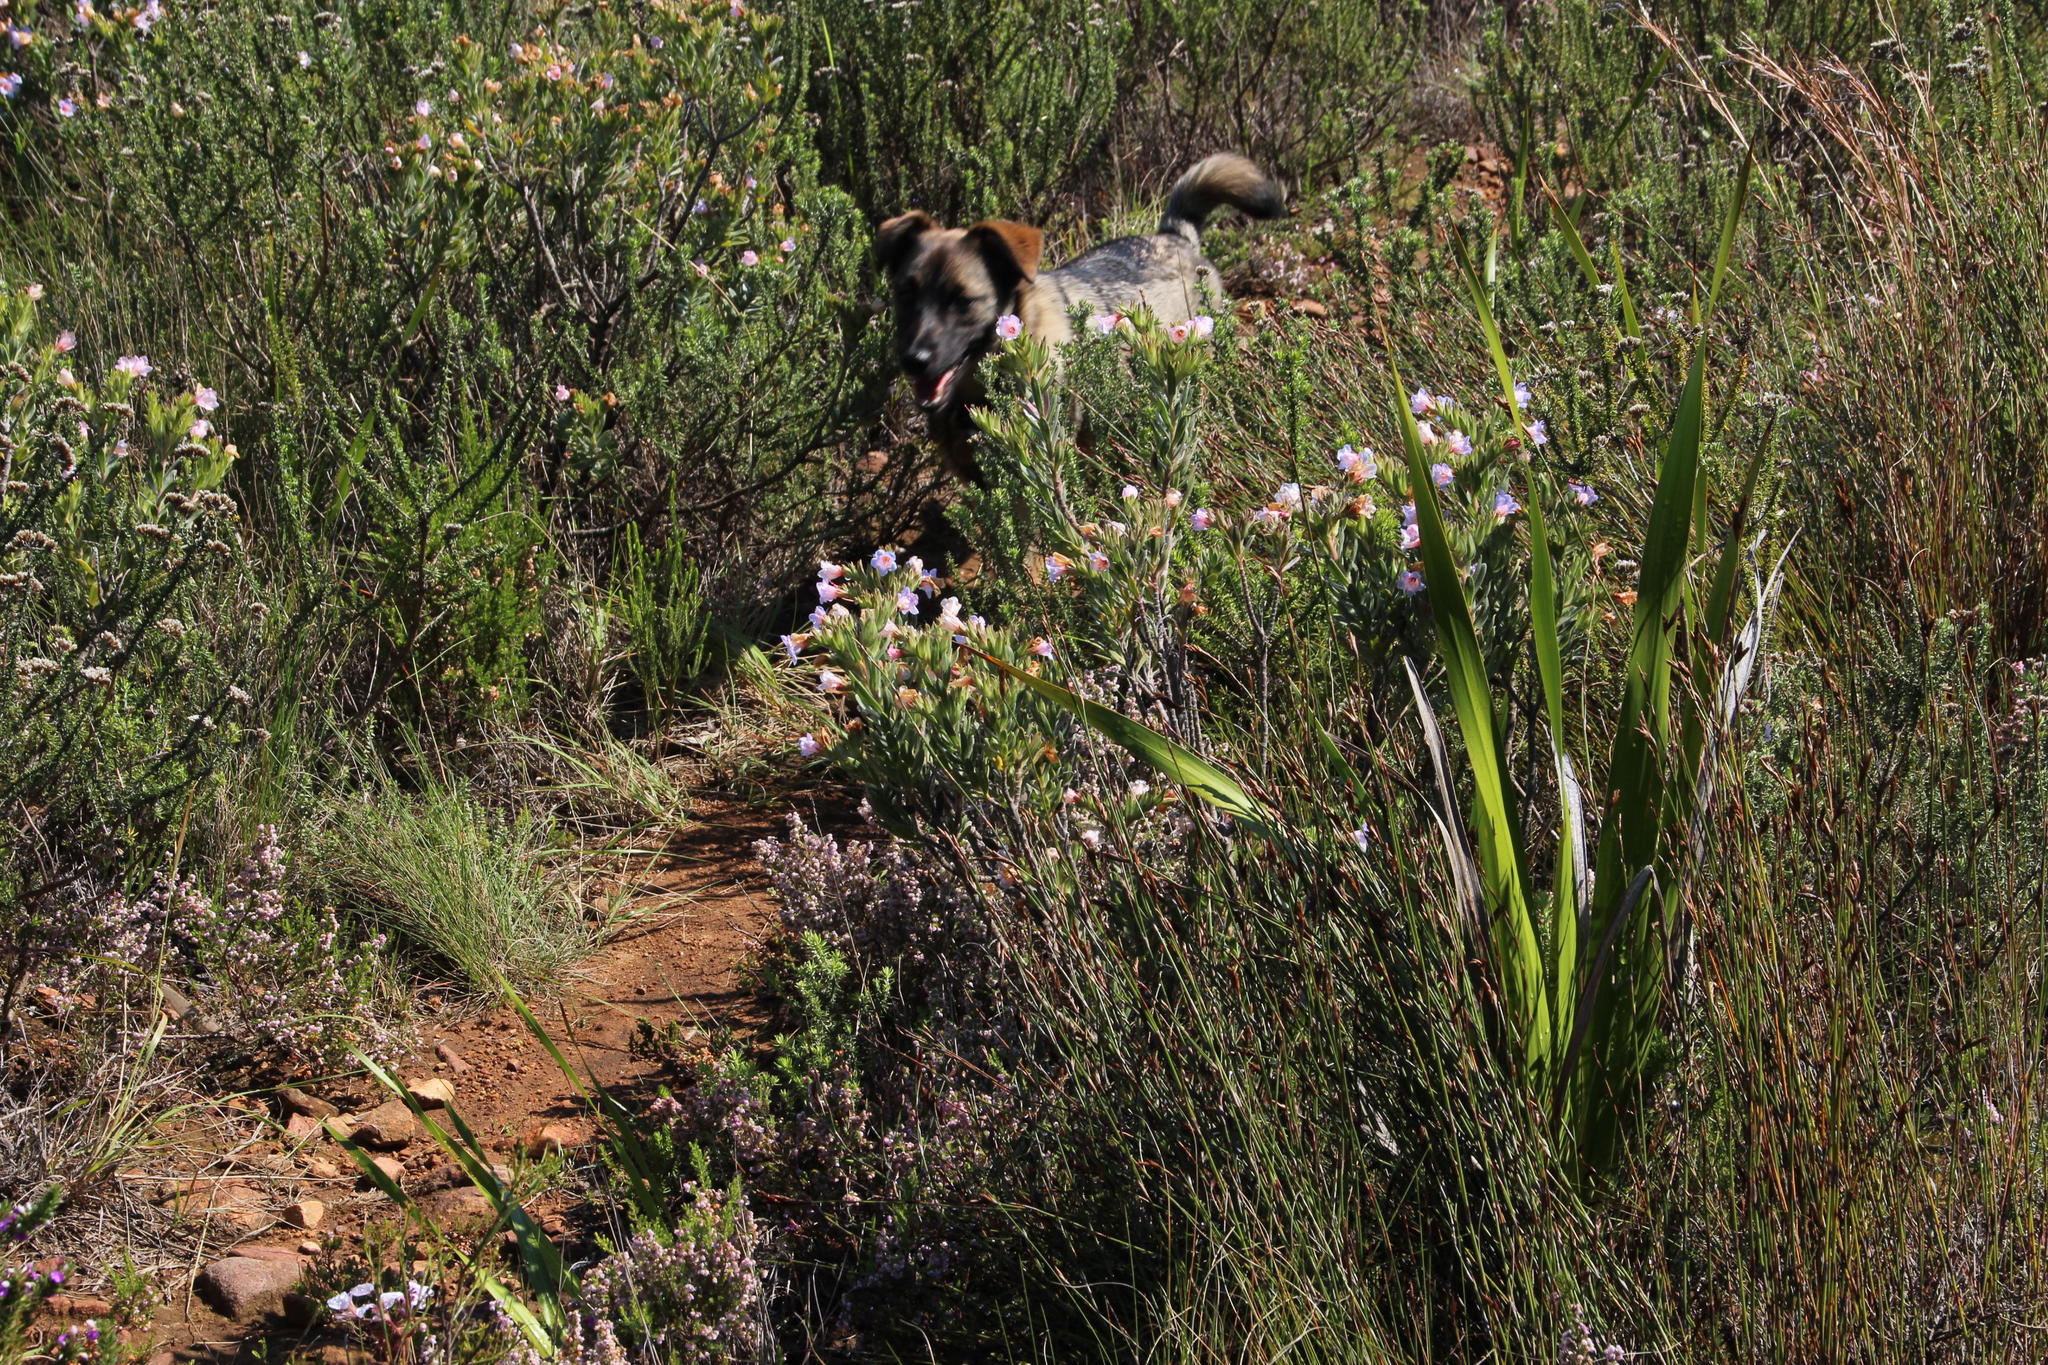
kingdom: Plantae
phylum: Tracheophyta
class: Magnoliopsida
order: Boraginales
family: Boraginaceae
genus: Lobostemon
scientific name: Lobostemon fruticosus
